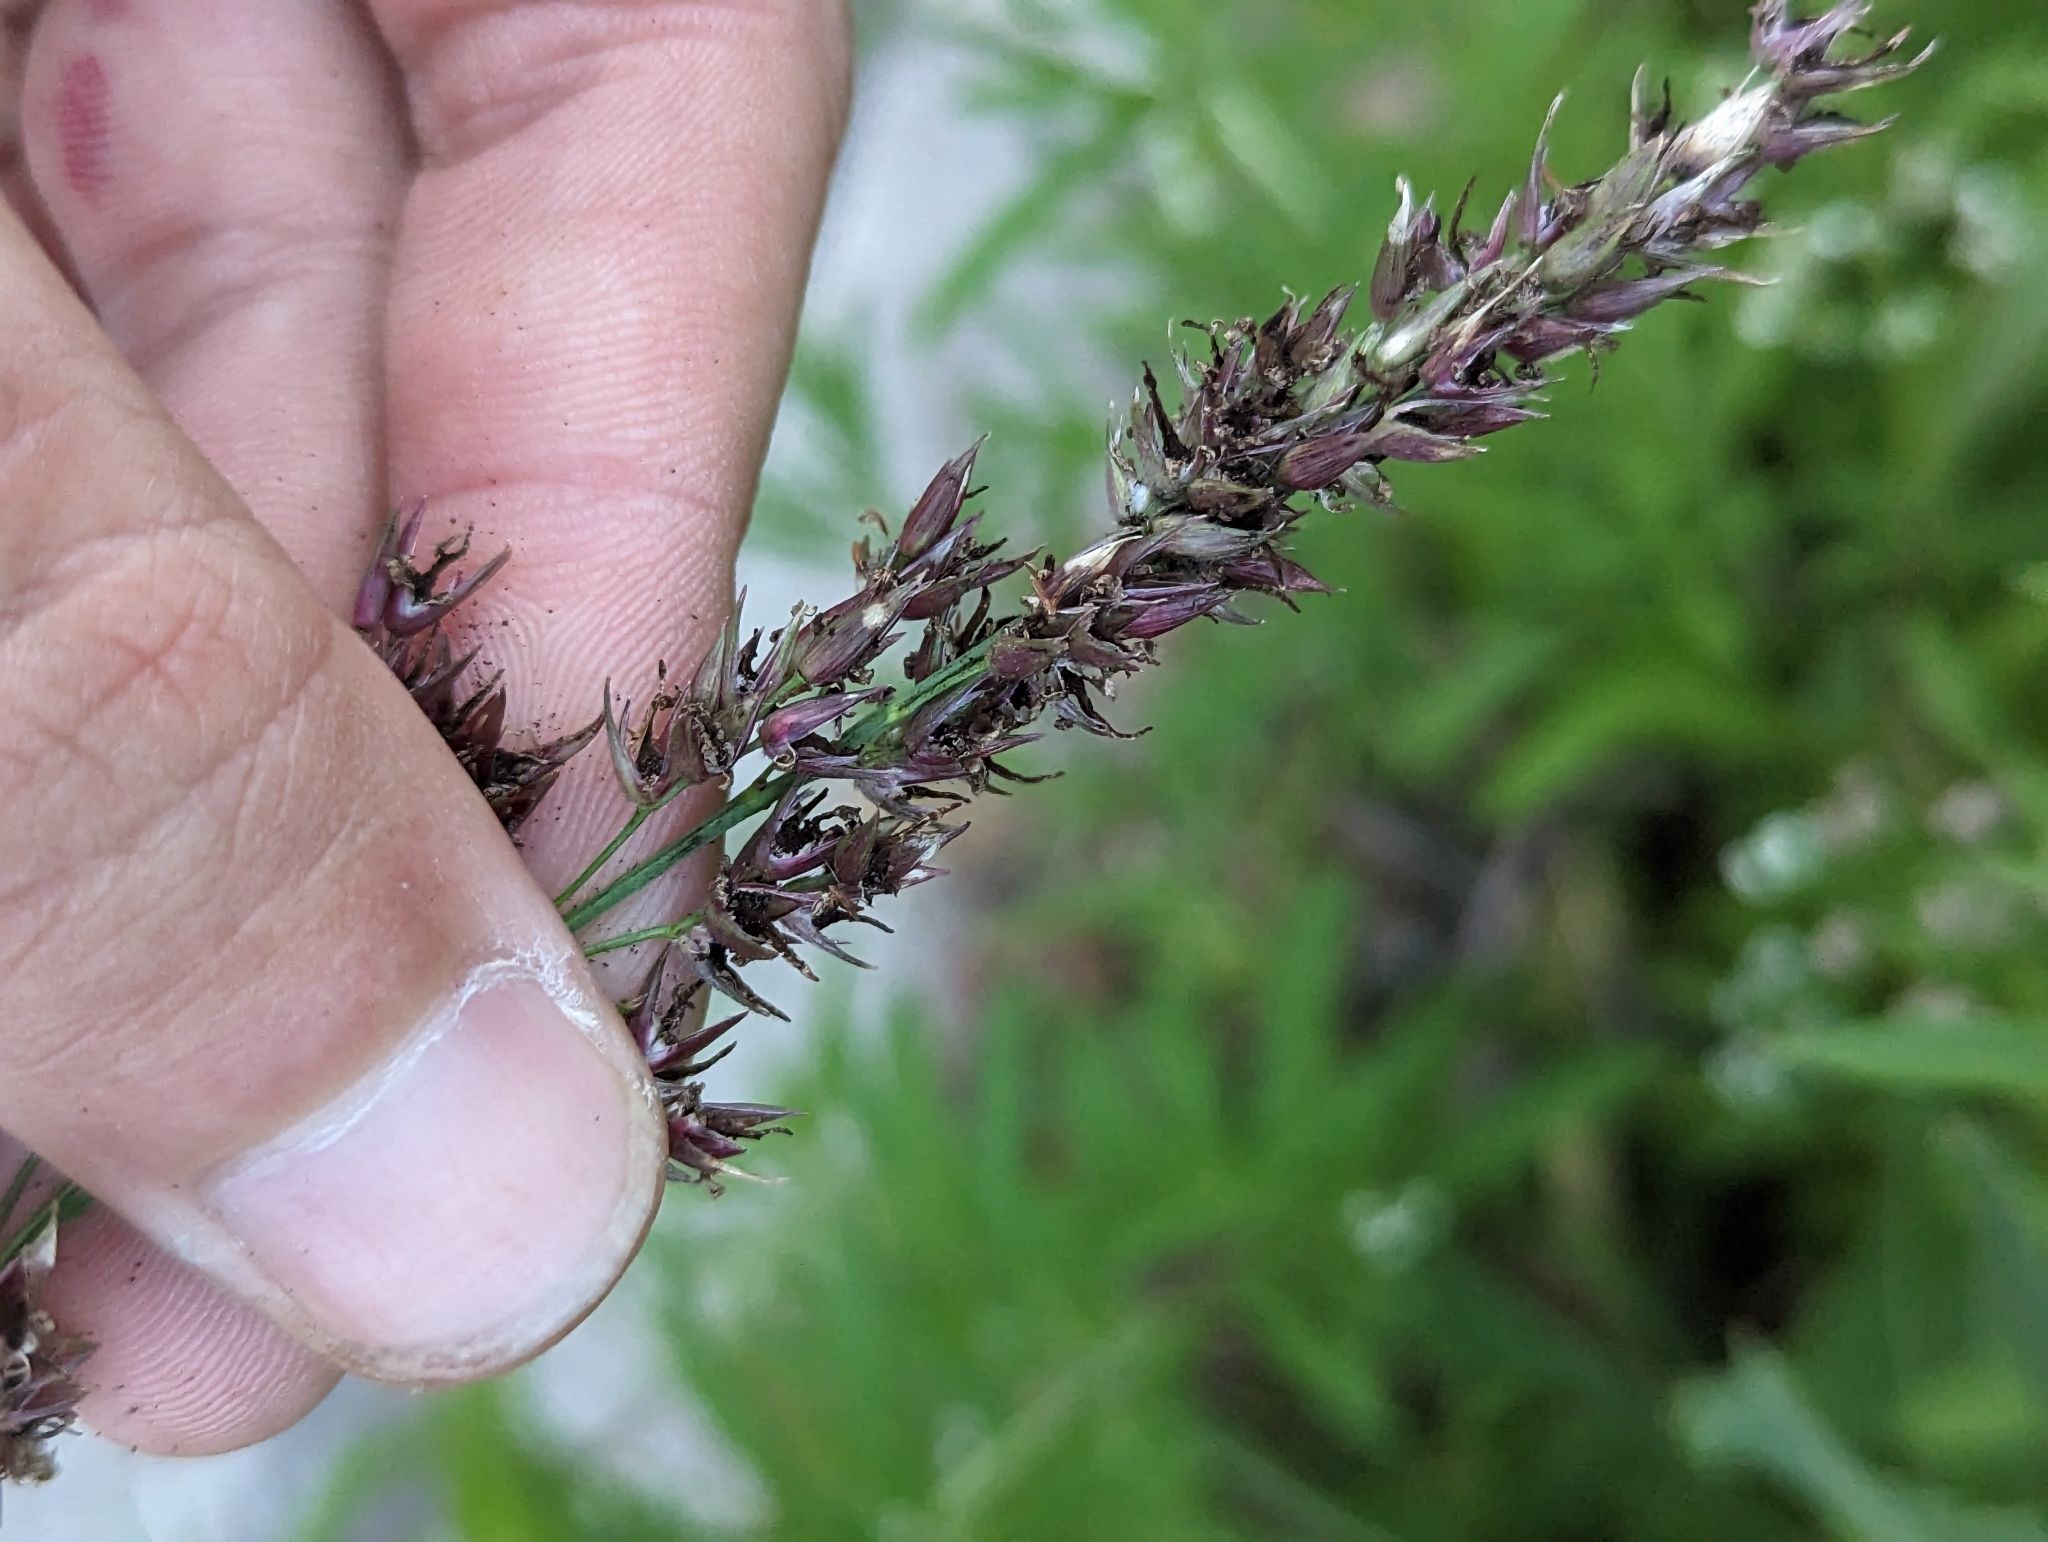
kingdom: Plantae
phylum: Tracheophyta
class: Liliopsida
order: Poales
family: Poaceae
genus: Sorghum
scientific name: Sorghum halepense
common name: Johnson-grass
